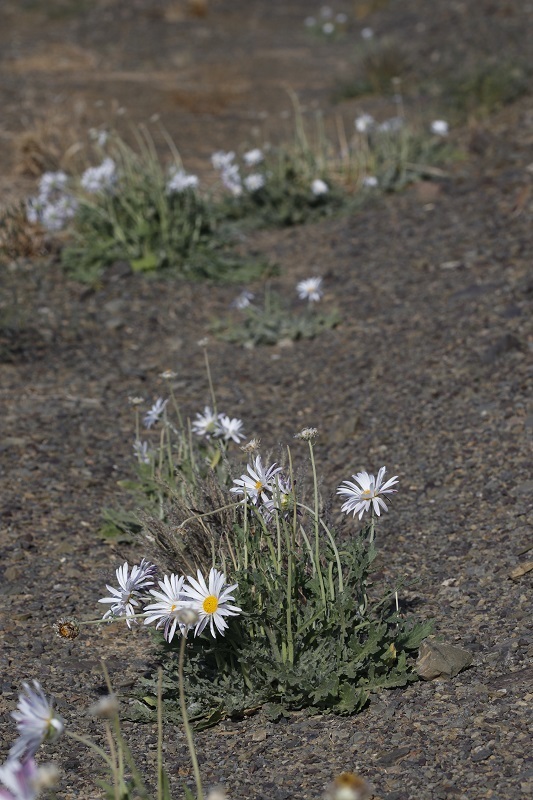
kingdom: Plantae
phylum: Tracheophyta
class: Magnoliopsida
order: Asterales
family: Asteraceae
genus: Arctotis
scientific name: Arctotis leiocarpa
